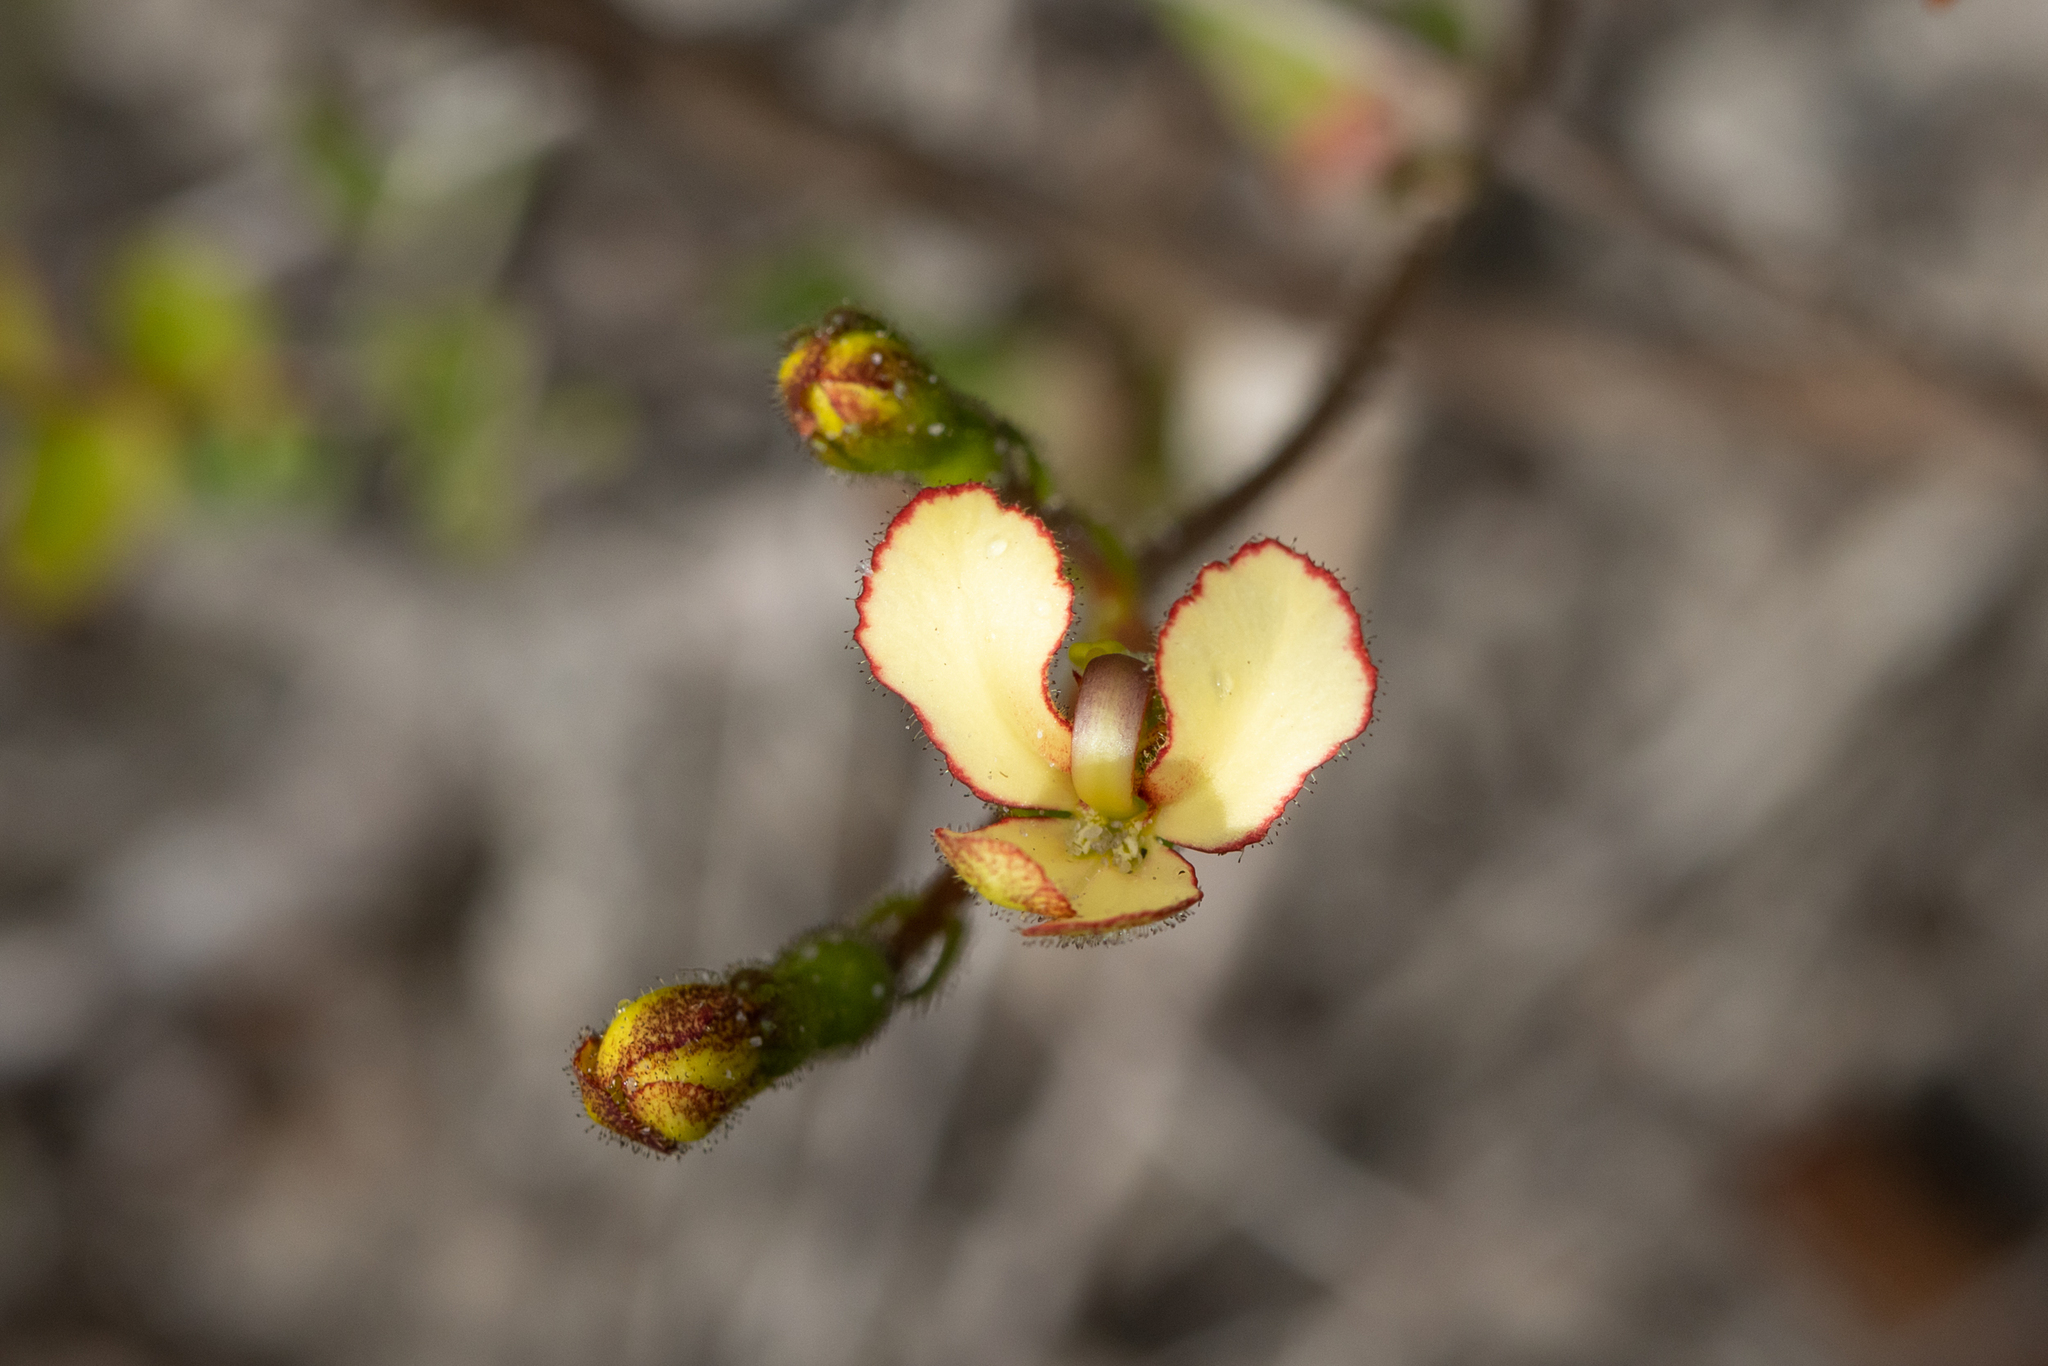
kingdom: Plantae
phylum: Tracheophyta
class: Magnoliopsida
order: Asterales
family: Stylidiaceae
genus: Stylidium
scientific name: Stylidium schoenoides
